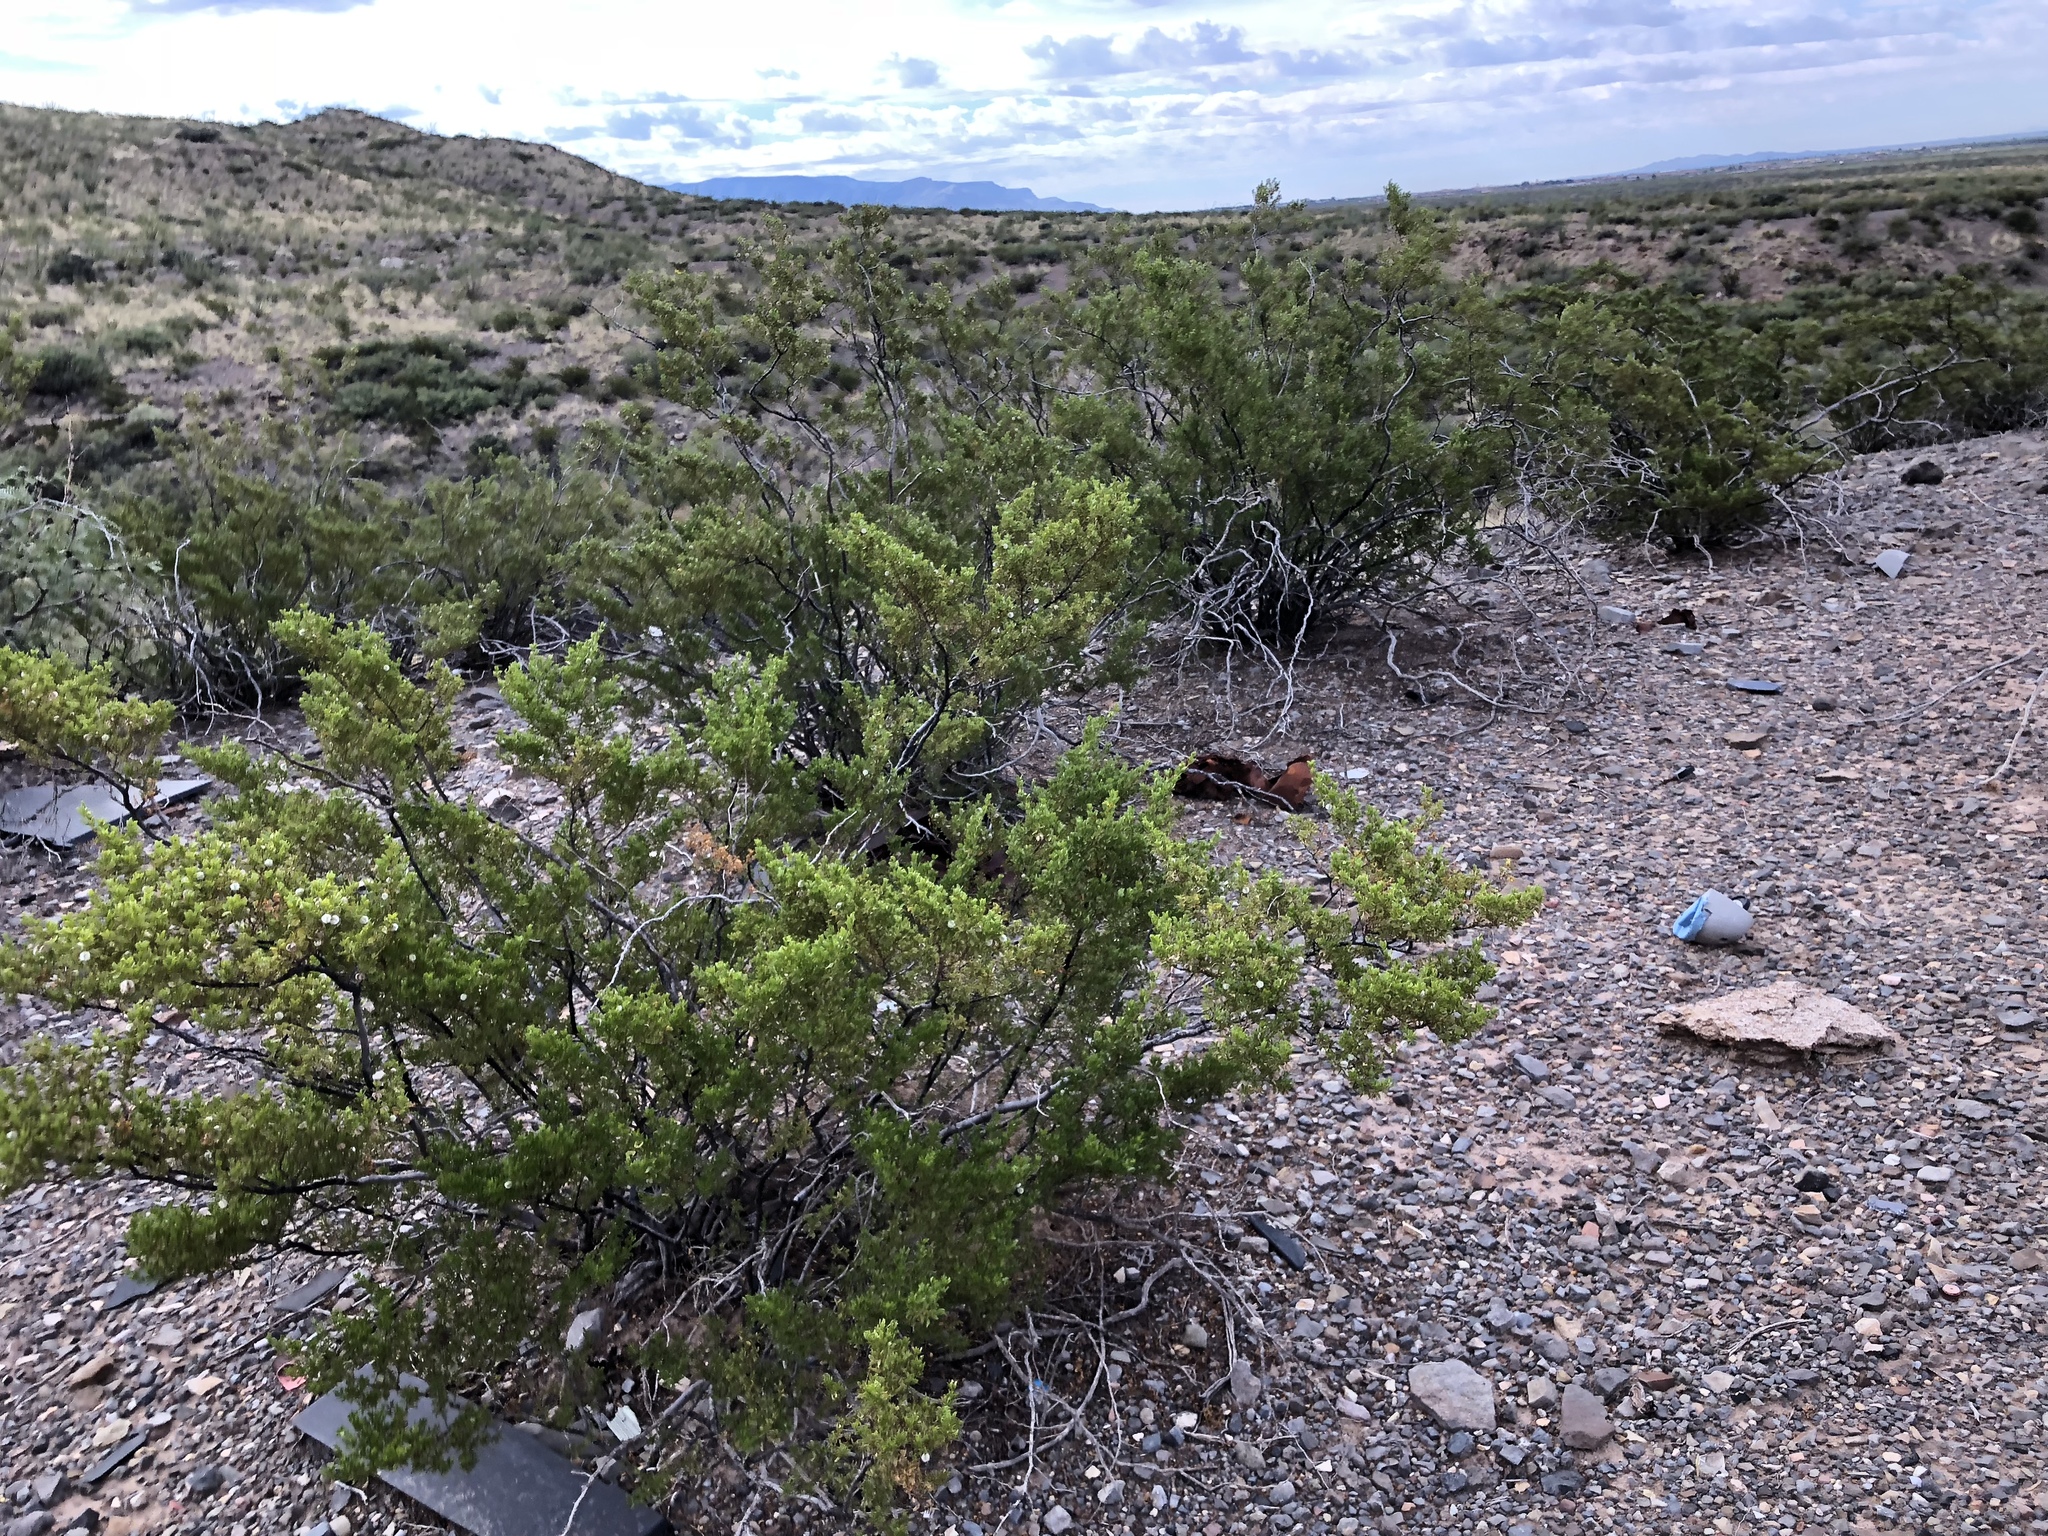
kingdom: Plantae
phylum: Tracheophyta
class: Magnoliopsida
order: Zygophyllales
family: Zygophyllaceae
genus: Larrea
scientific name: Larrea tridentata
